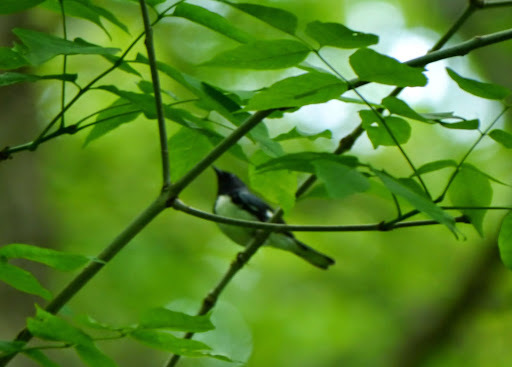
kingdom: Animalia
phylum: Chordata
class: Aves
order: Passeriformes
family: Parulidae
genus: Setophaga
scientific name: Setophaga caerulescens
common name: Black-throated blue warbler
